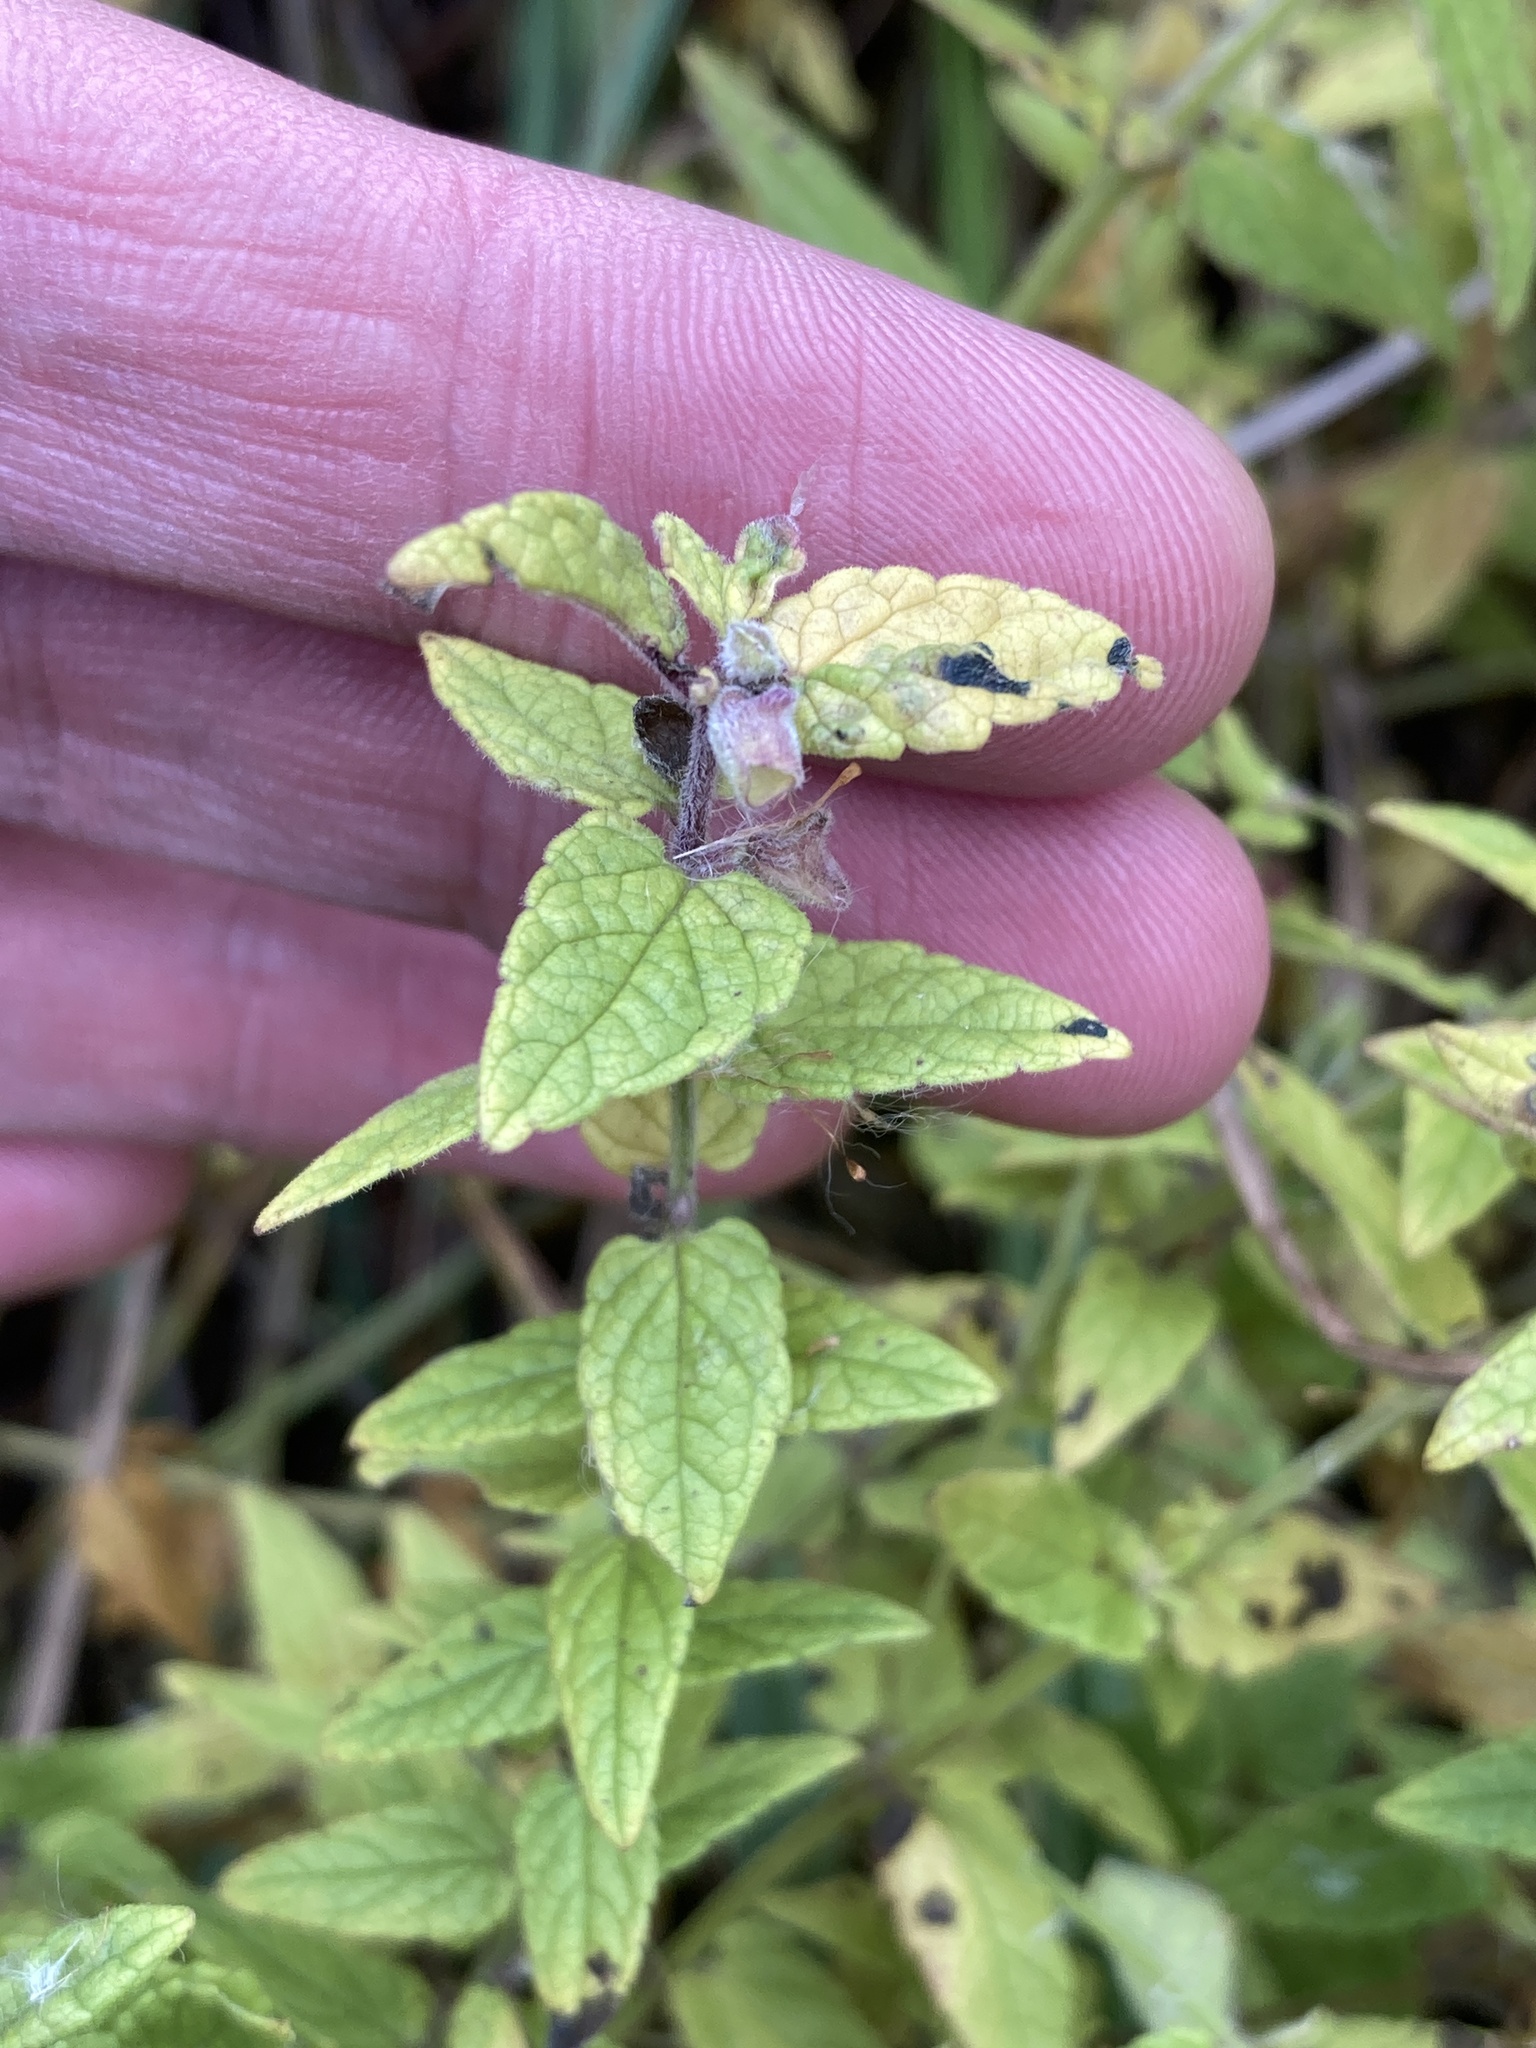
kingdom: Plantae
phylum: Tracheophyta
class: Magnoliopsida
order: Lamiales
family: Lamiaceae
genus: Scutellaria
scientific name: Scutellaria galericulata
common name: Skullcap
